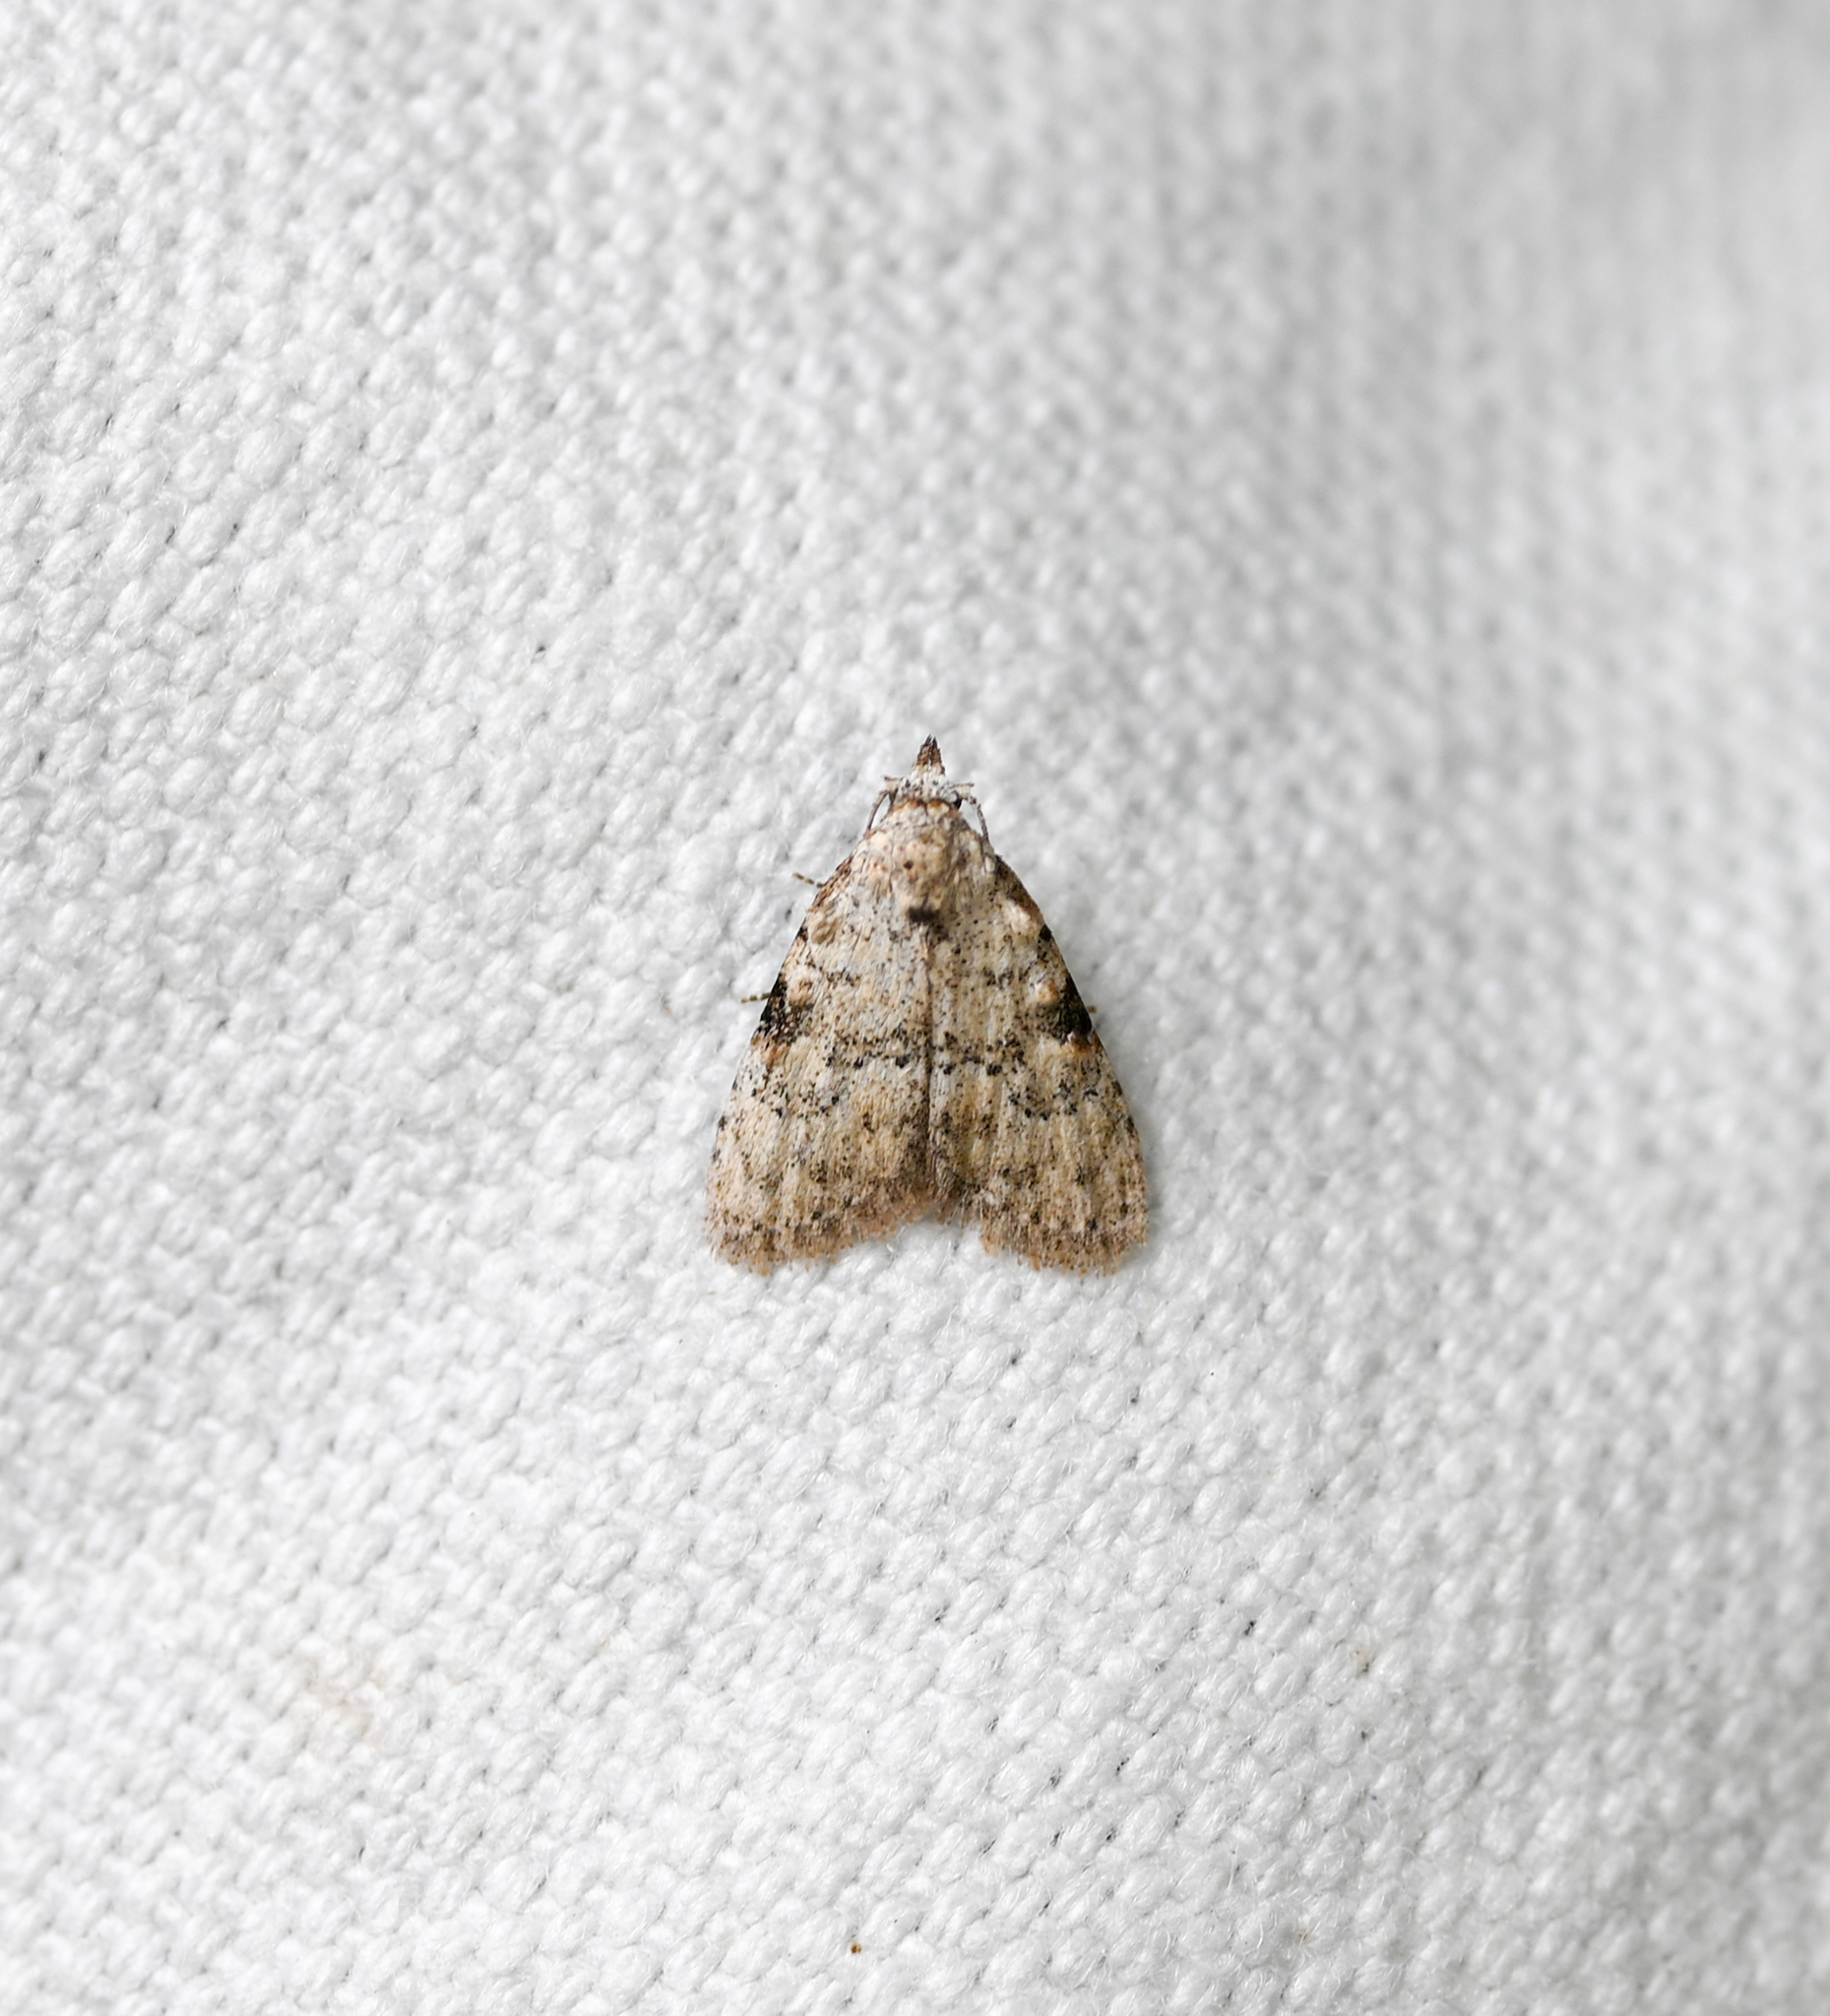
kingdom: Animalia
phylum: Arthropoda
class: Insecta
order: Lepidoptera
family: Nolidae
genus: Meganola
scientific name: Meganola minuscula
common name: Confused meganola moth
